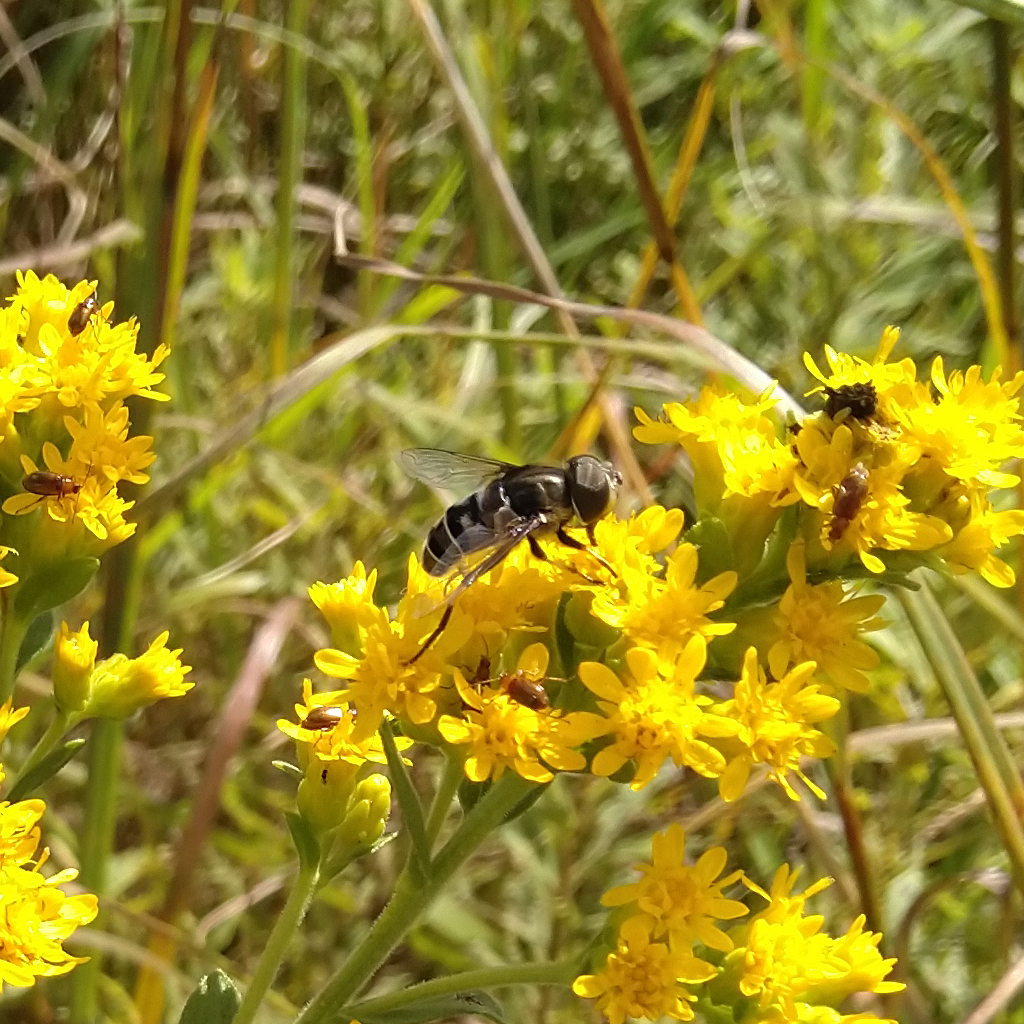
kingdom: Animalia
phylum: Arthropoda
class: Insecta
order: Diptera
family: Syrphidae
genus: Eristalis
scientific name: Eristalis dimidiata
